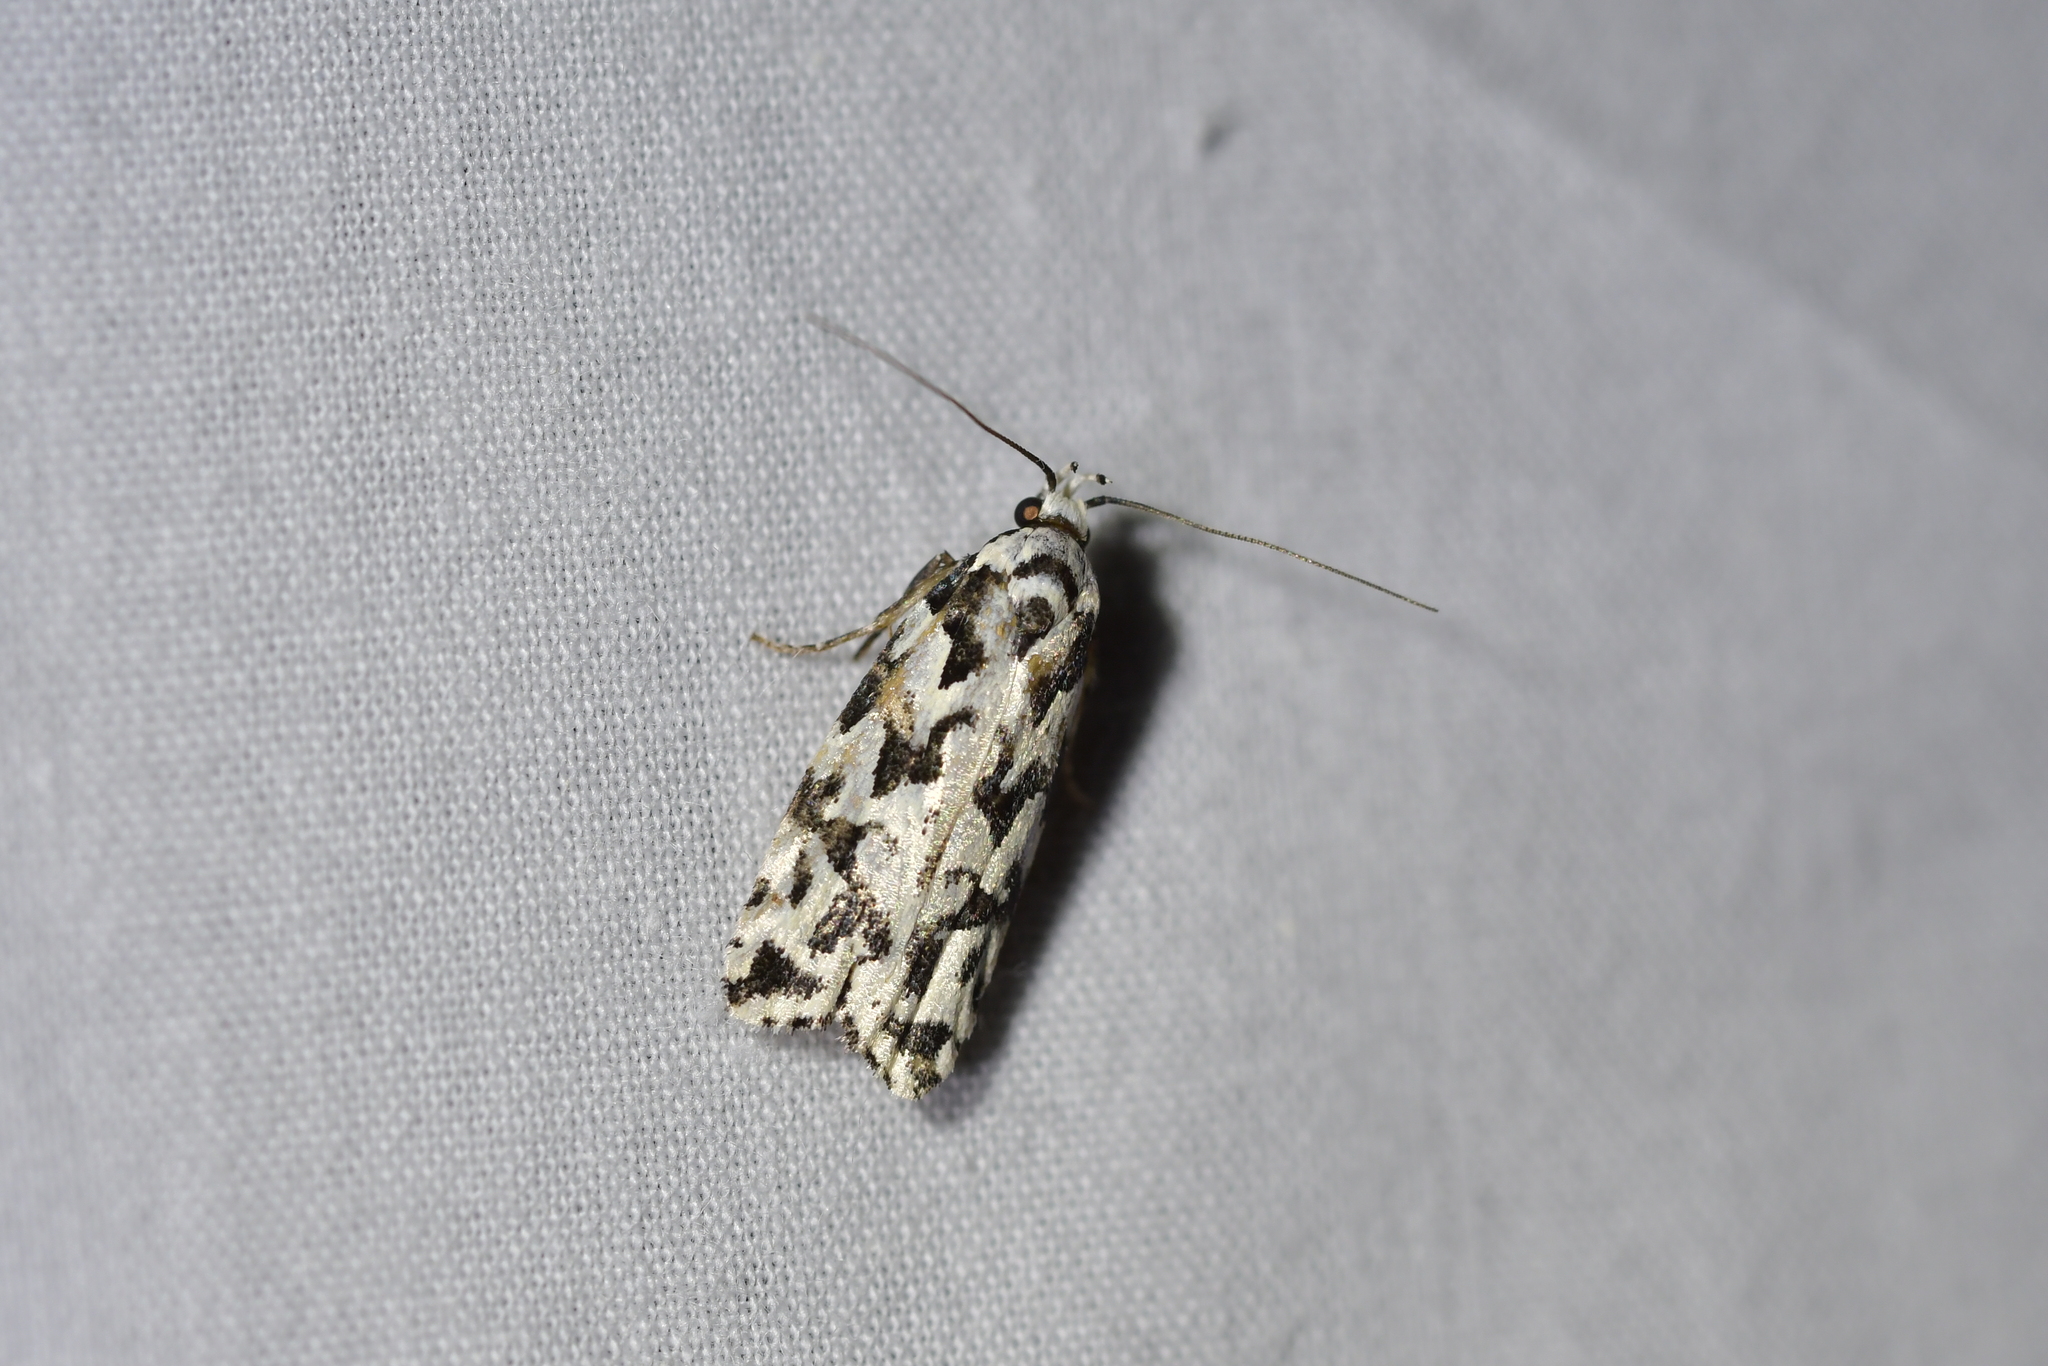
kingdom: Animalia
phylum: Arthropoda
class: Insecta
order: Lepidoptera
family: Oecophoridae
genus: Izatha
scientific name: Izatha
